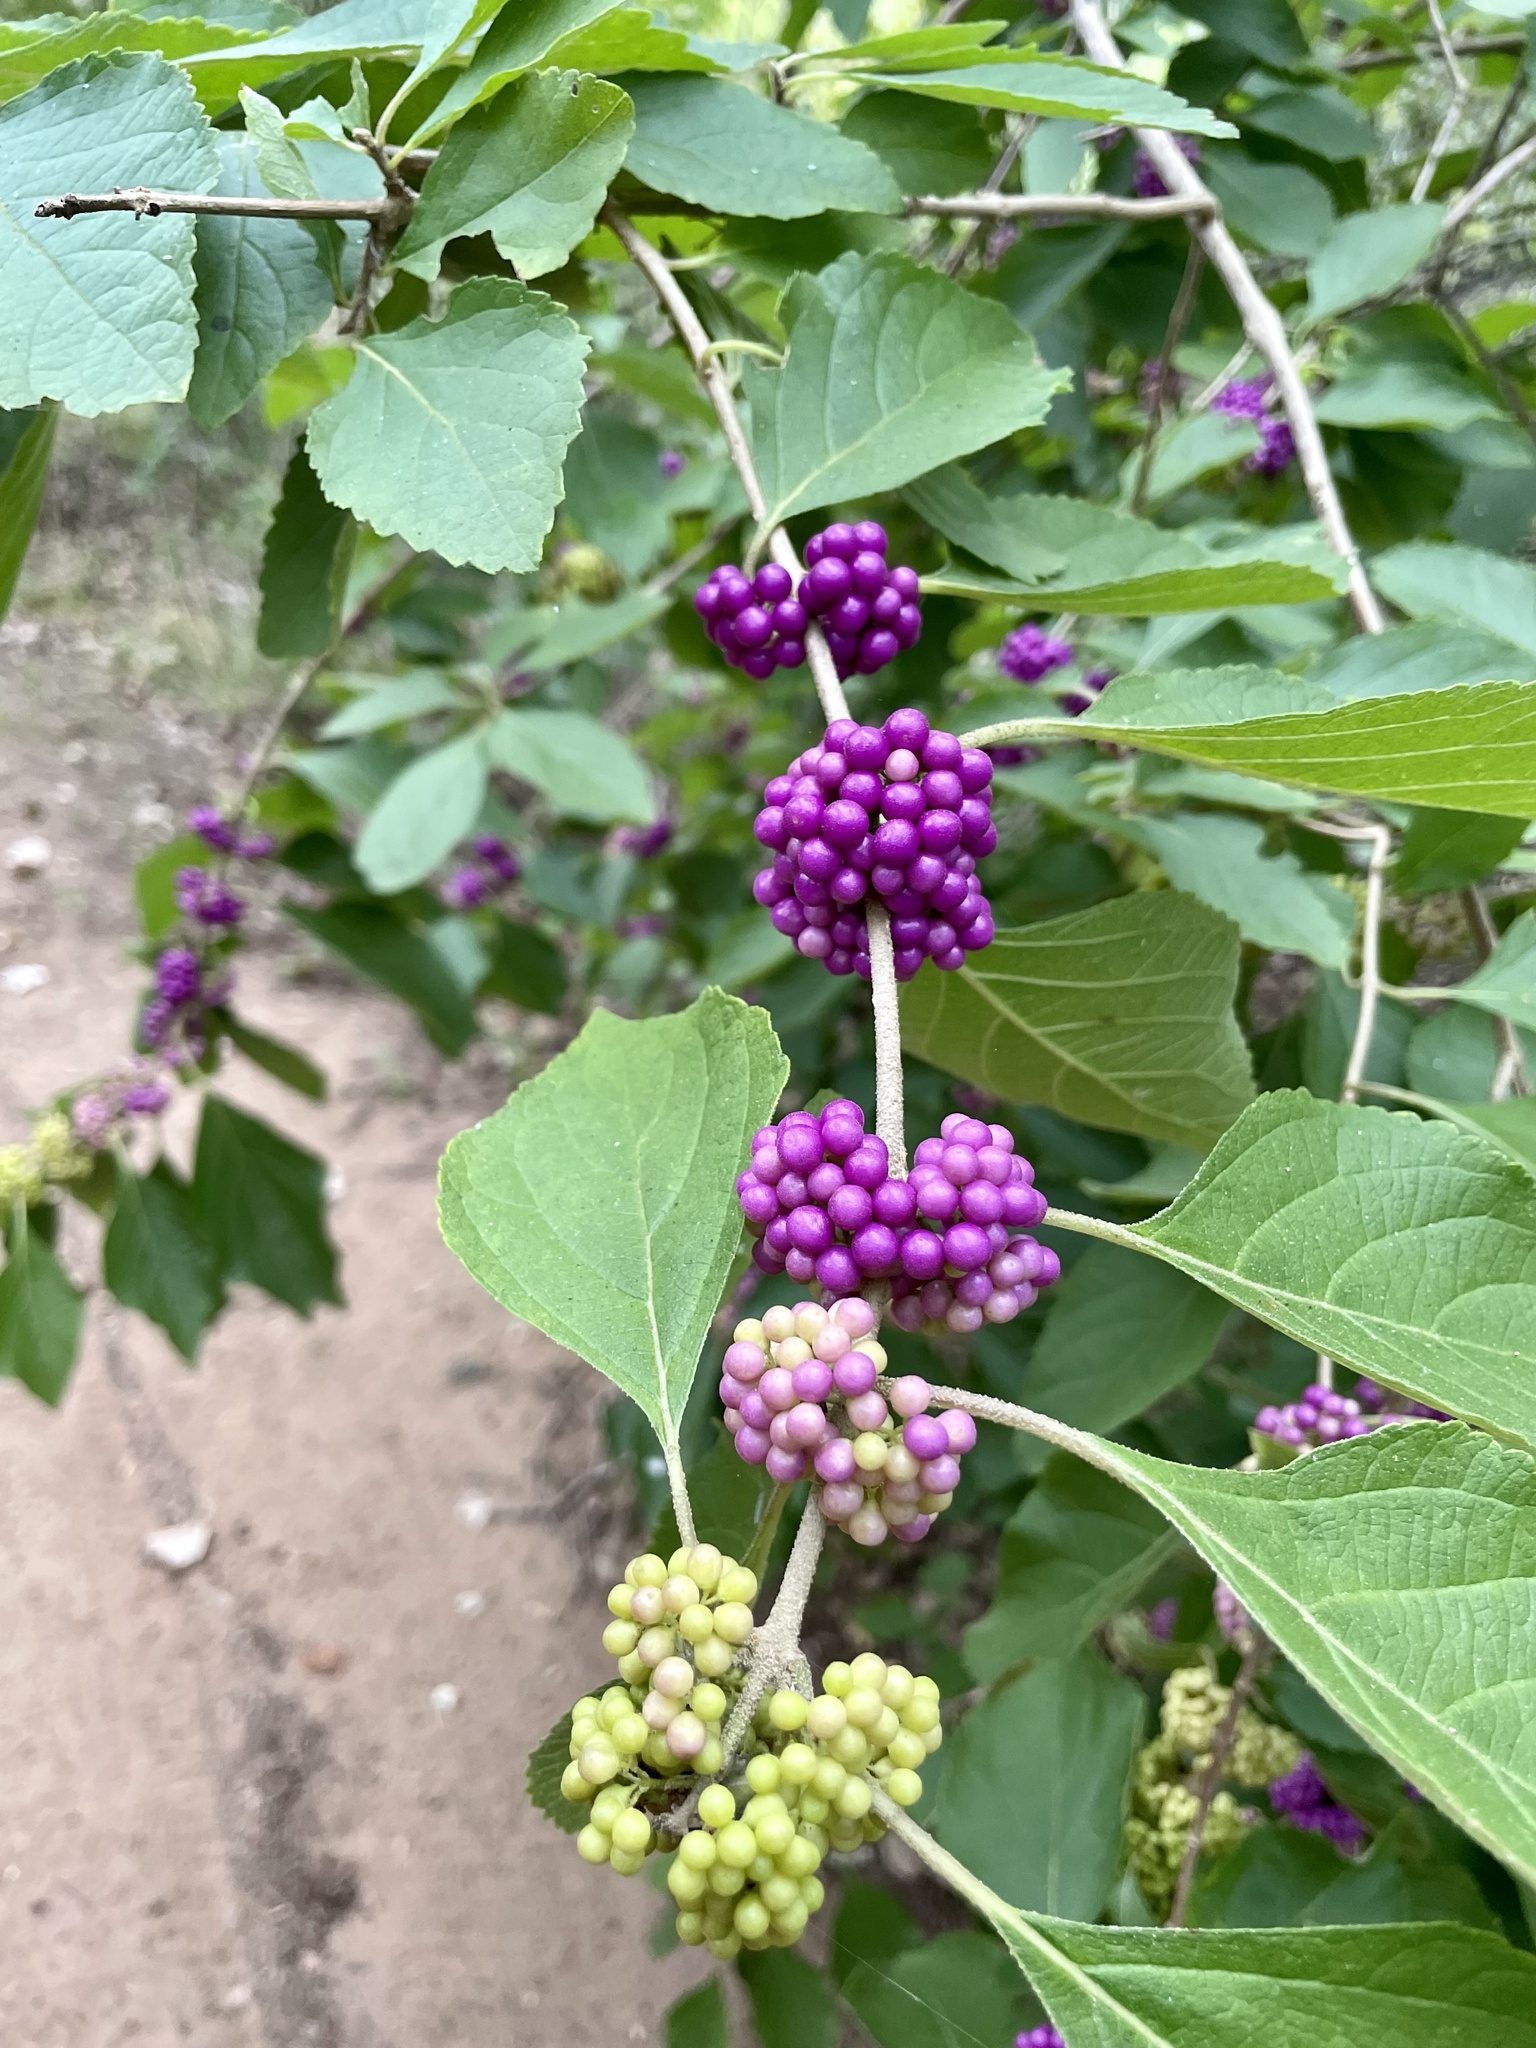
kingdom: Plantae
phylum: Tracheophyta
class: Magnoliopsida
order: Lamiales
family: Lamiaceae
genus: Callicarpa
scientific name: Callicarpa americana
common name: American beautyberry
